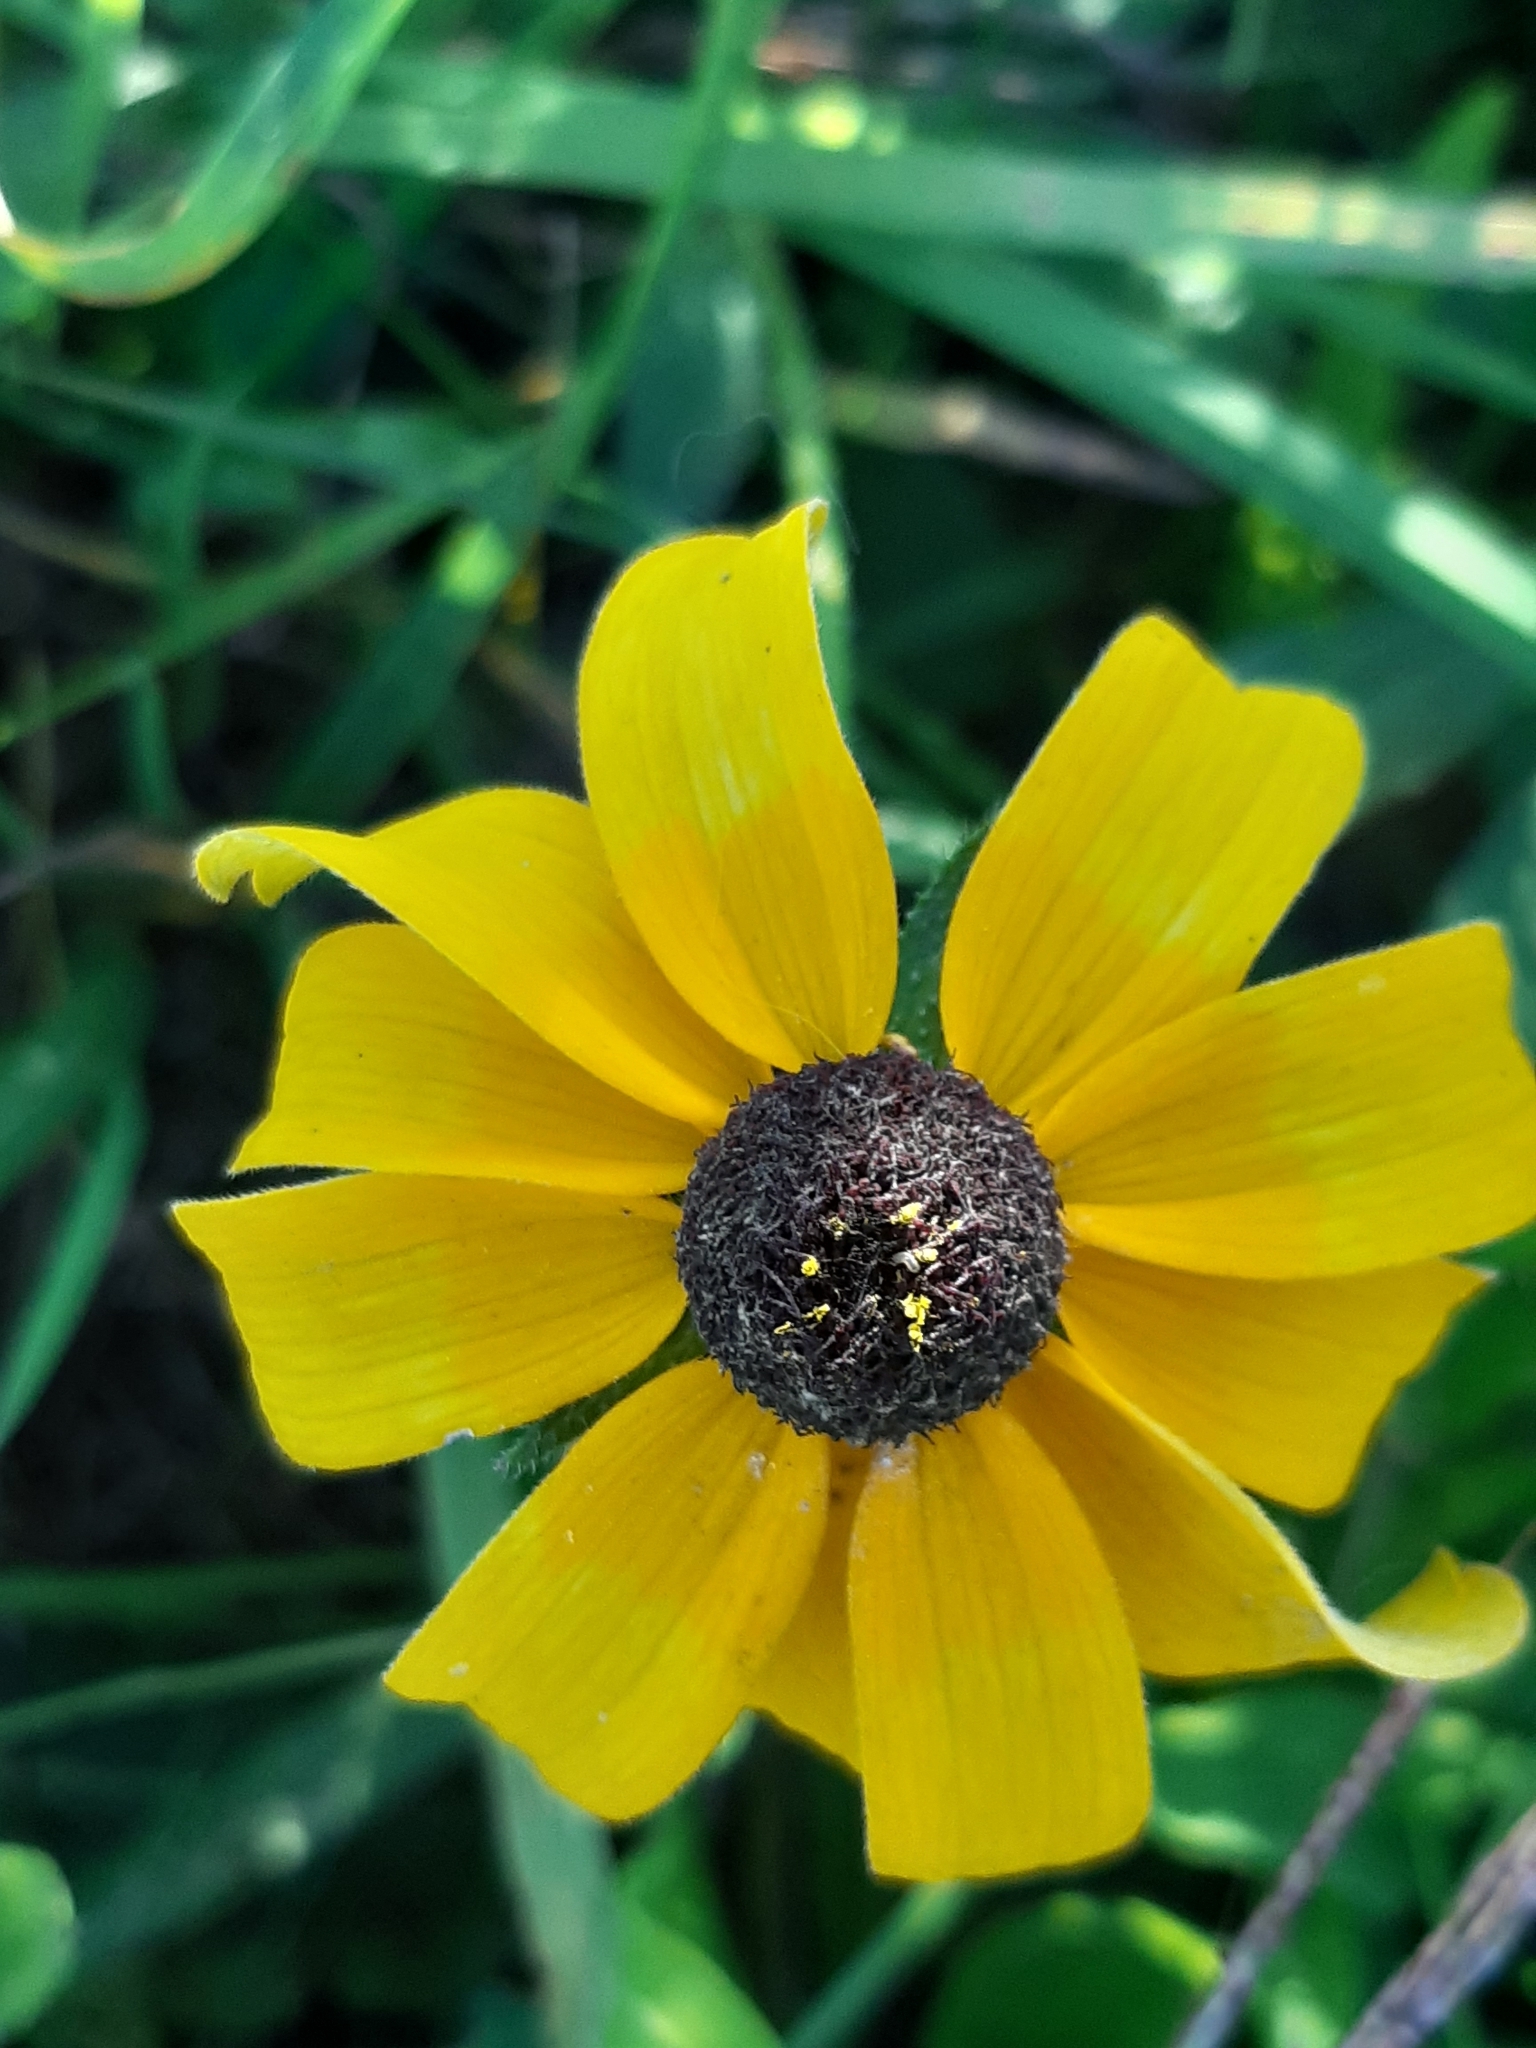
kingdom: Plantae
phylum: Tracheophyta
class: Magnoliopsida
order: Asterales
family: Asteraceae
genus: Rudbeckia
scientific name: Rudbeckia hirta
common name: Black-eyed-susan
